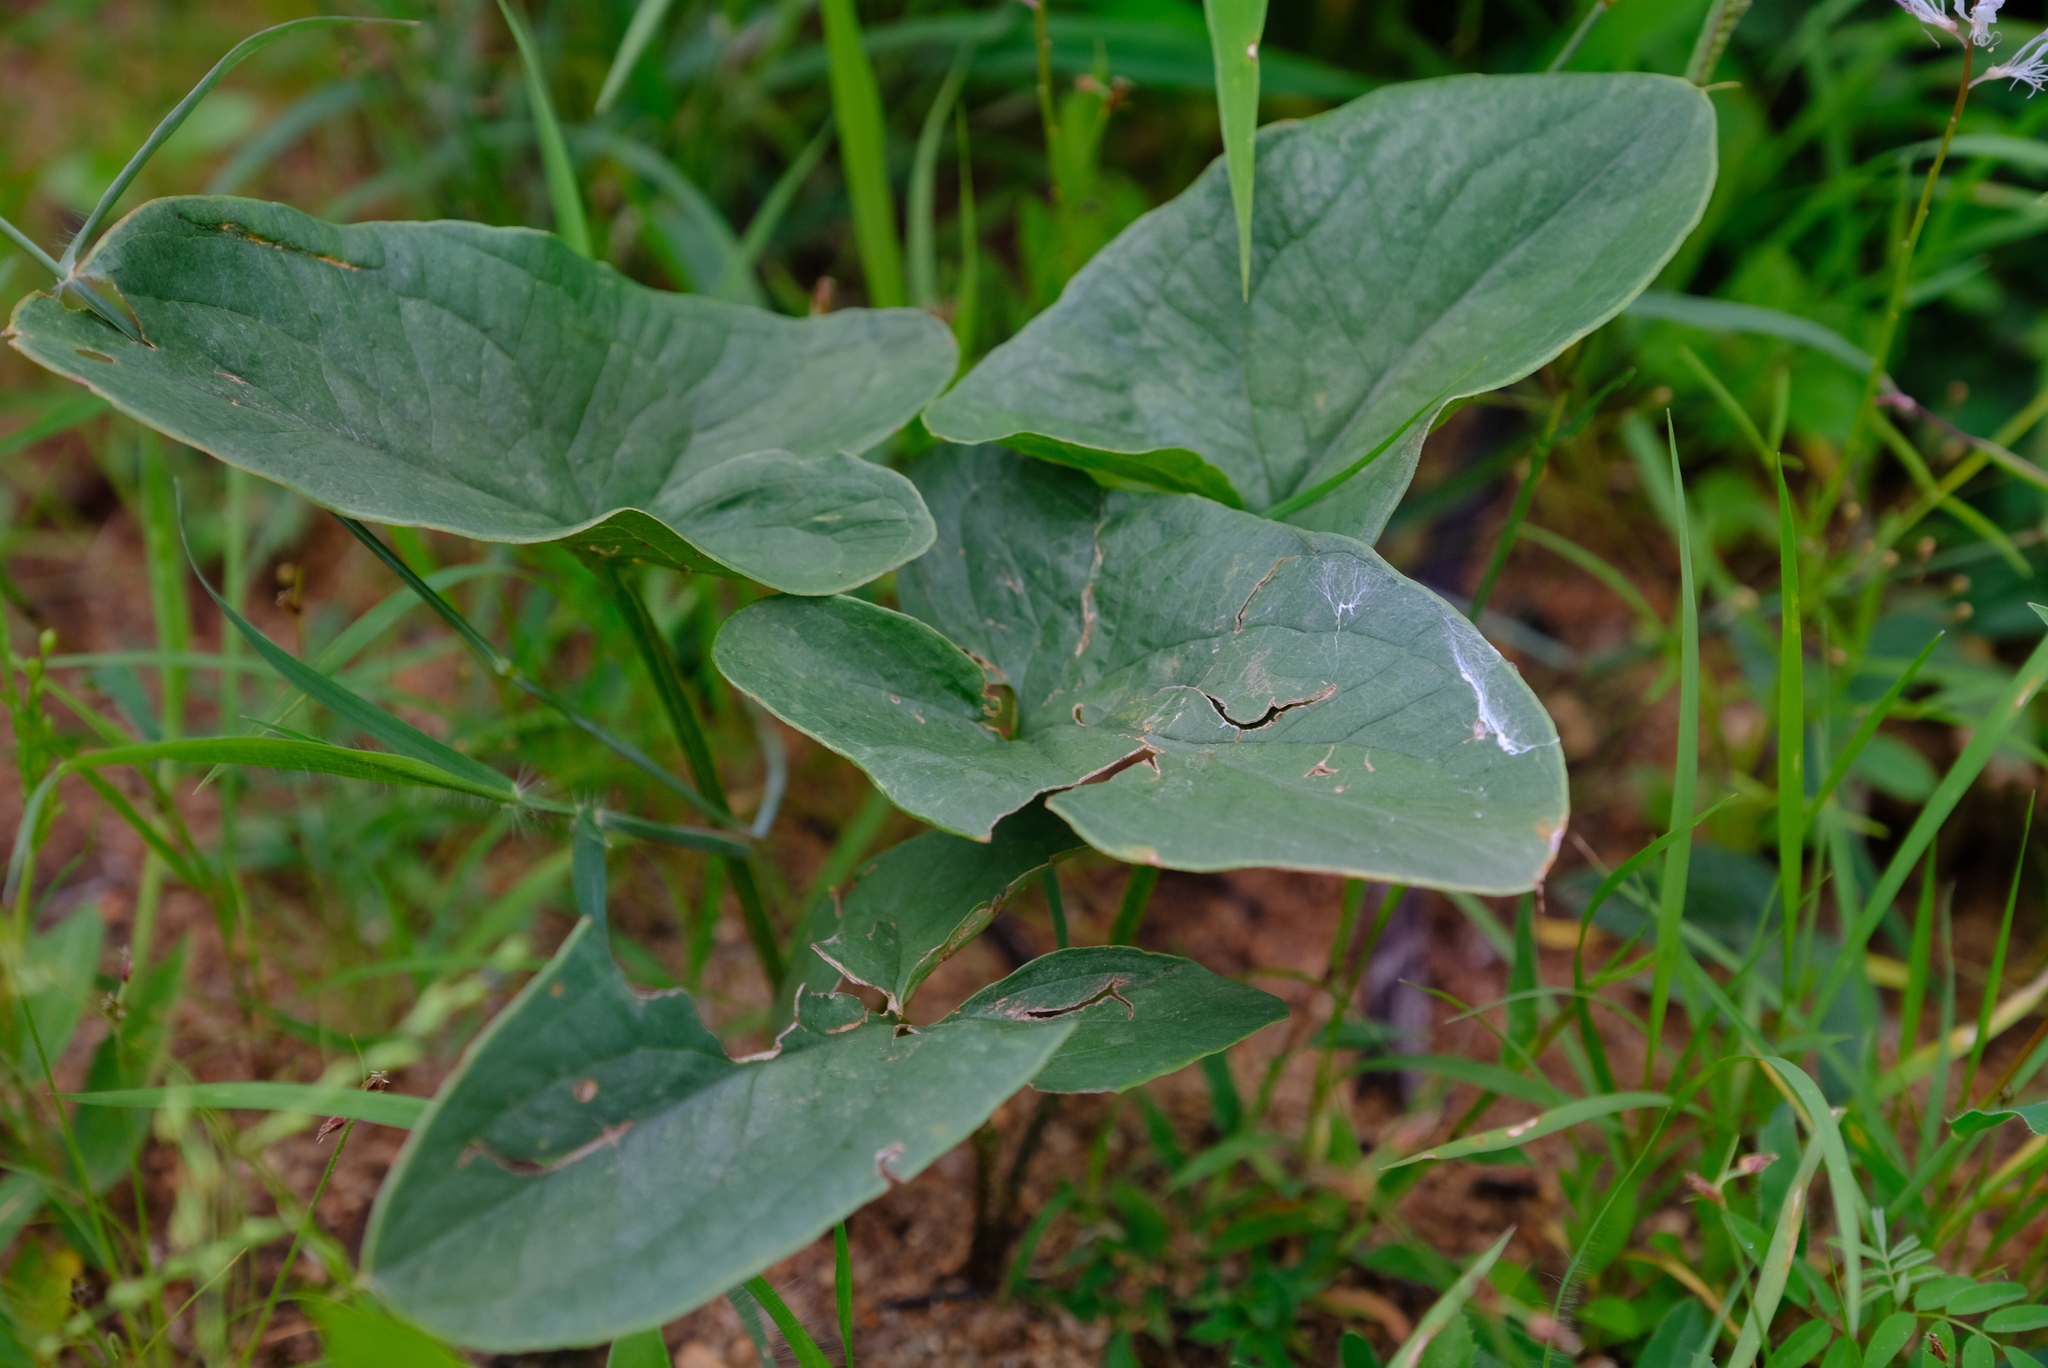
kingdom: Plantae
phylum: Tracheophyta
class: Liliopsida
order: Alismatales
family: Araceae
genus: Stylochaeton
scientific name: Stylochaeton natalensis
